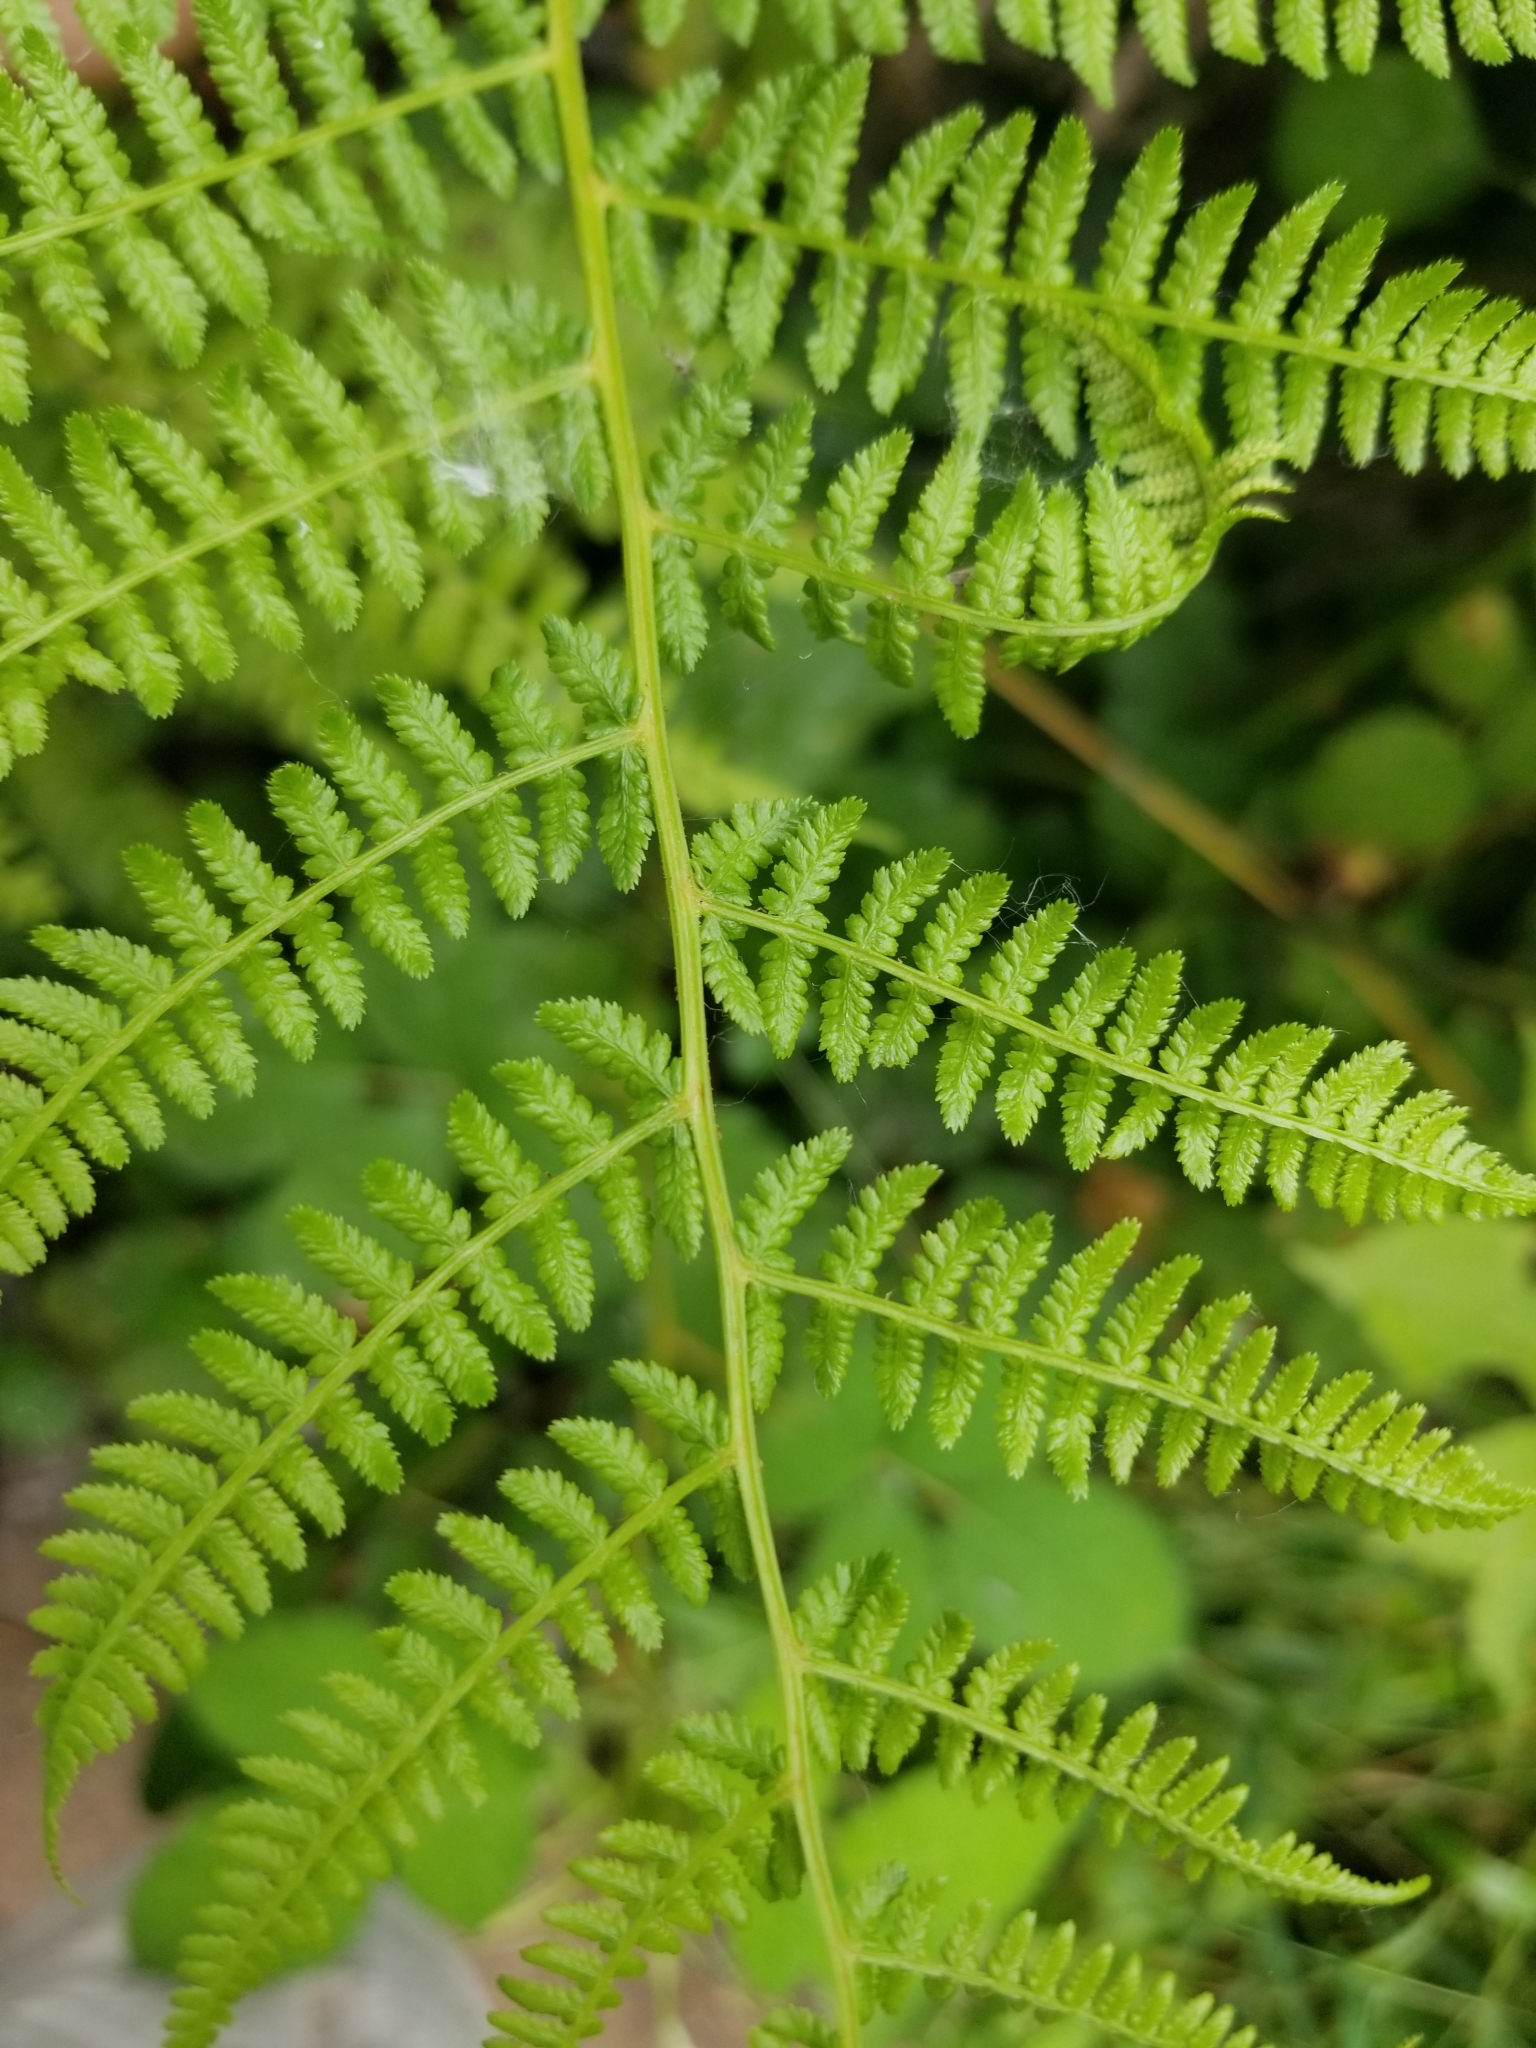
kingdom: Plantae
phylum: Tracheophyta
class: Polypodiopsida
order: Polypodiales
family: Athyriaceae
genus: Athyrium
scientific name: Athyrium filix-femina
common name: Lady fern
